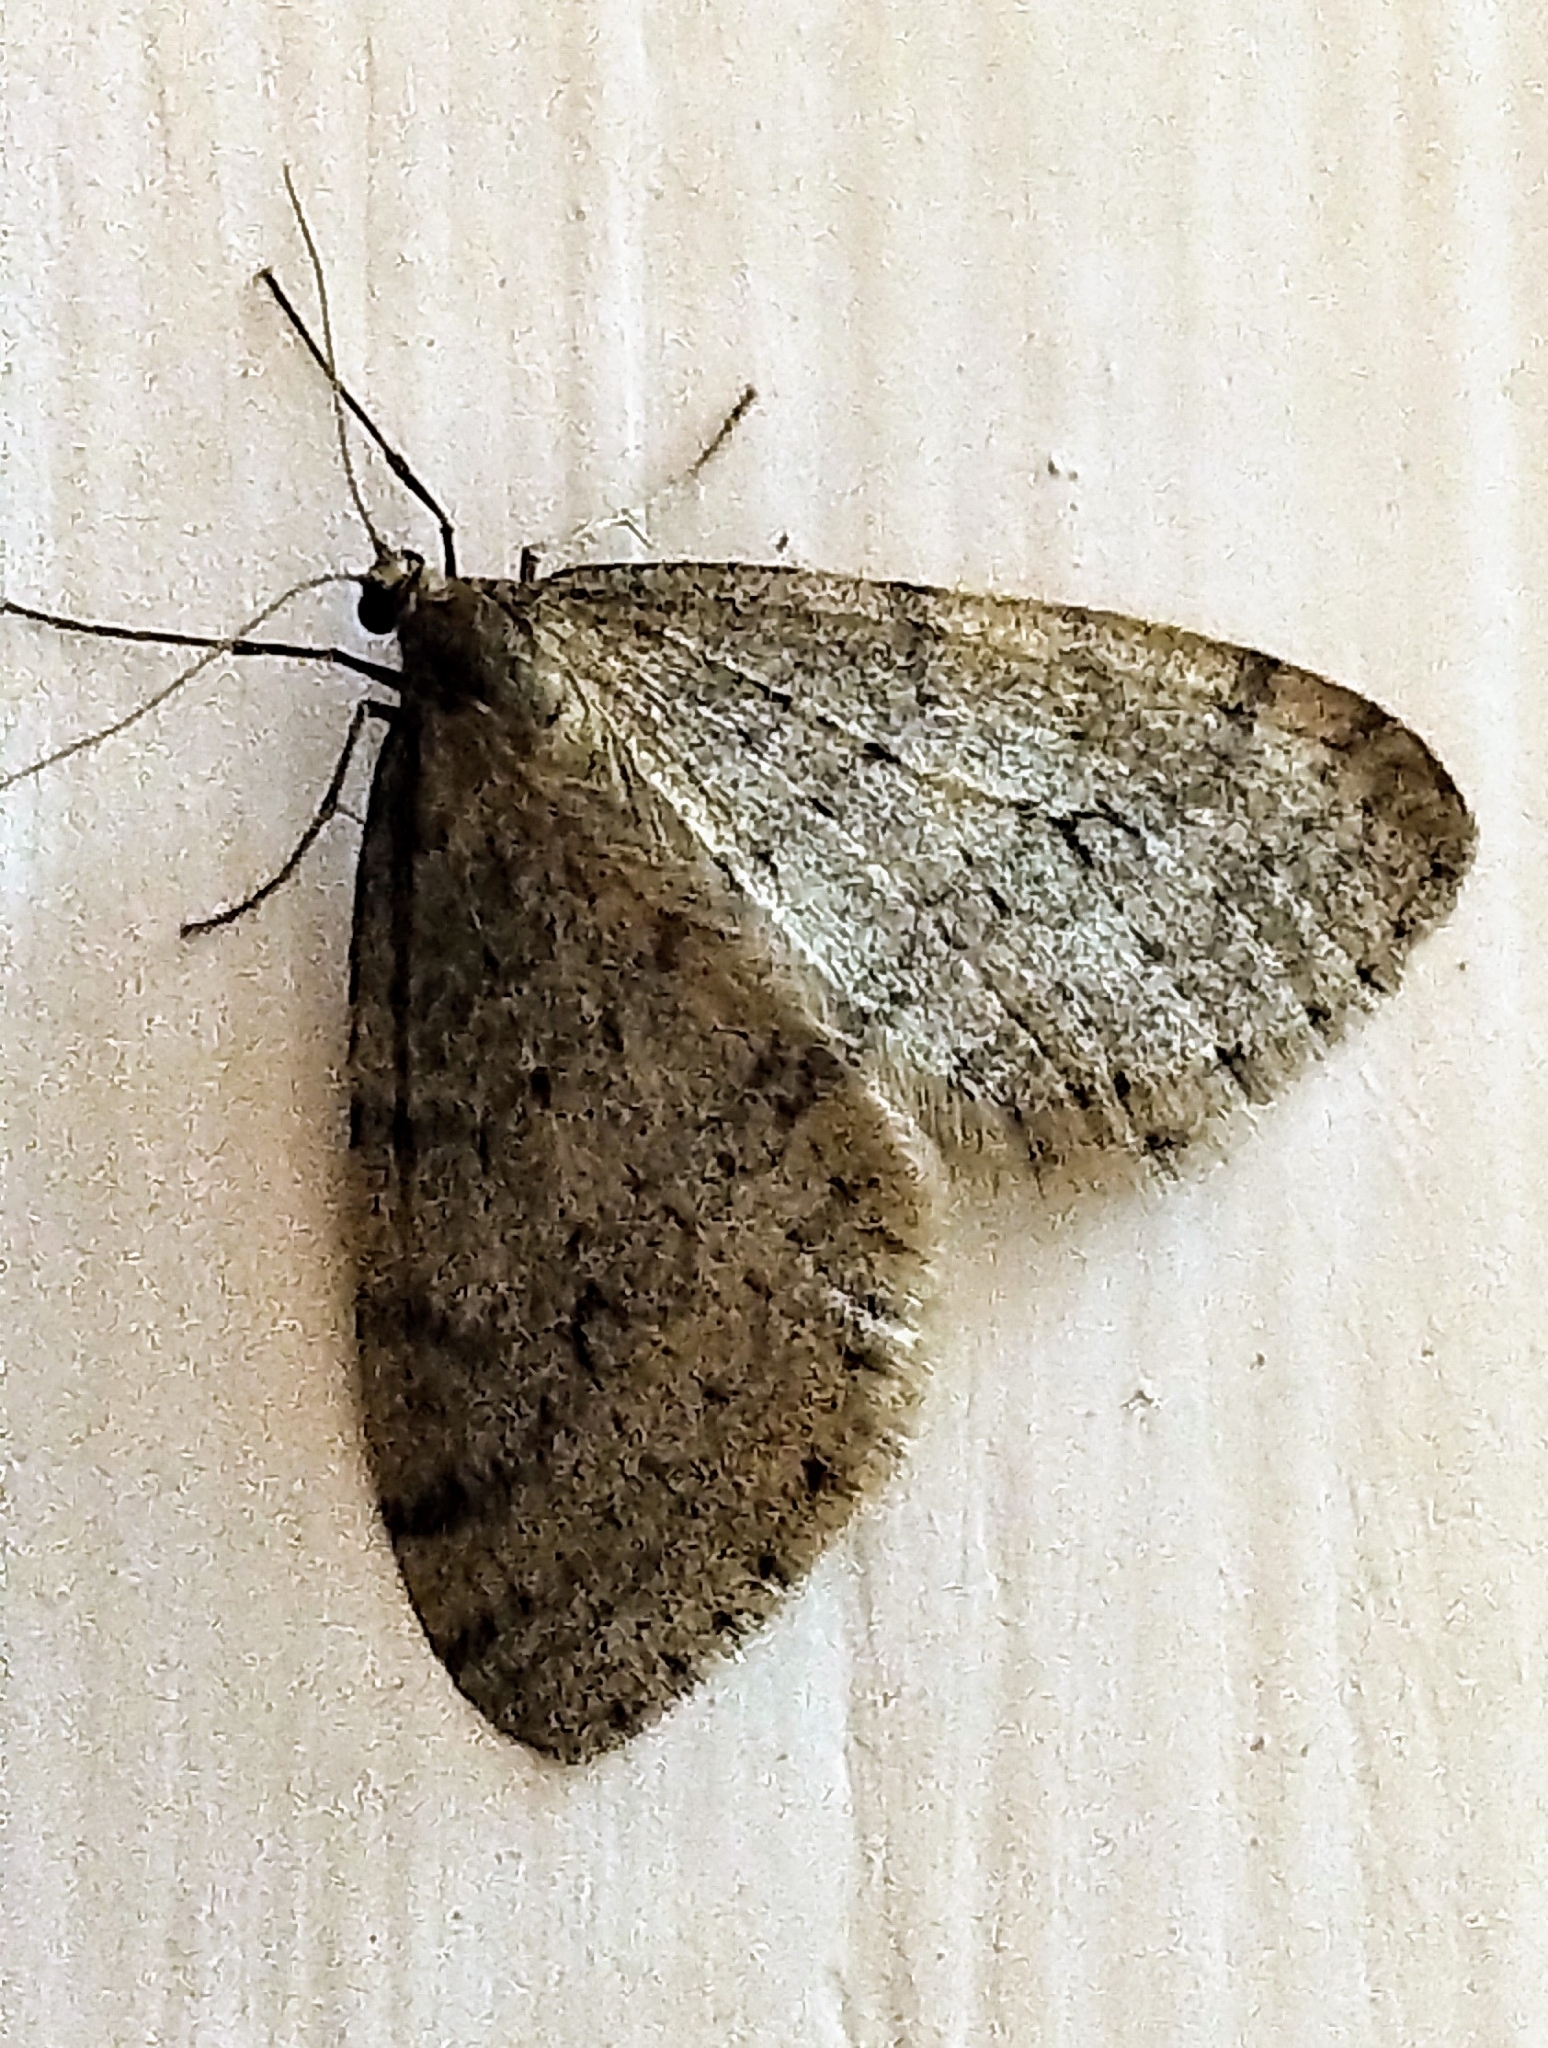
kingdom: Animalia
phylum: Arthropoda
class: Insecta
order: Lepidoptera
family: Geometridae
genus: Operophtera
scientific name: Operophtera bruceata
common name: Bruce spanworm
